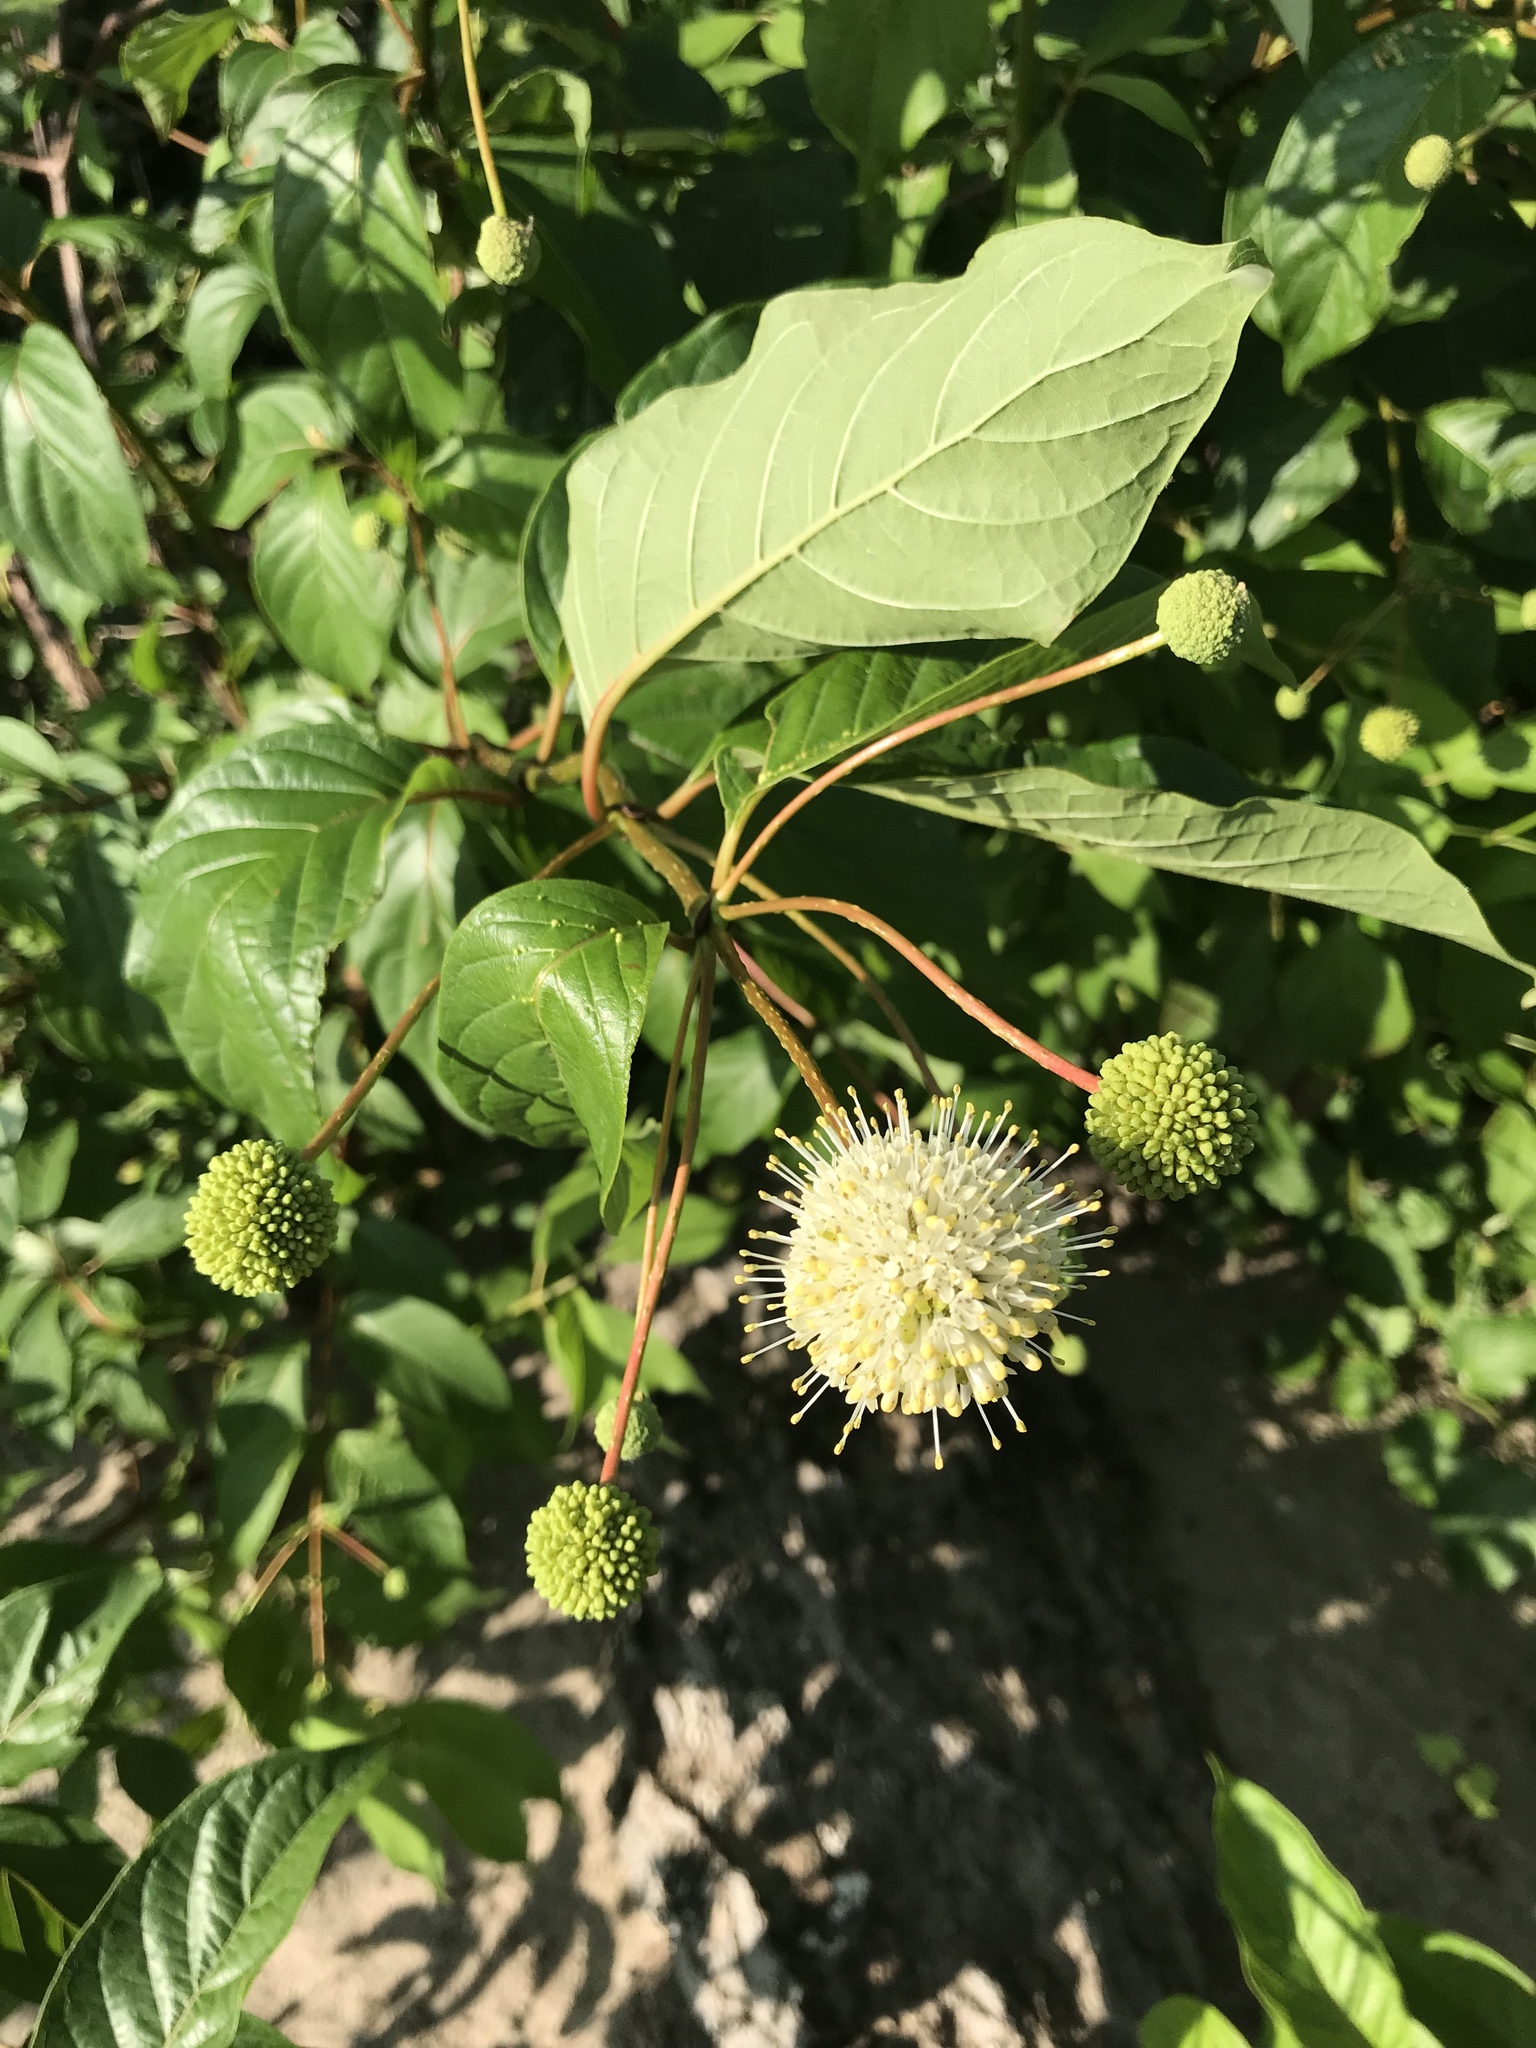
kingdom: Plantae
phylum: Tracheophyta
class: Magnoliopsida
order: Gentianales
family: Rubiaceae
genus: Cephalanthus
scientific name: Cephalanthus occidentalis
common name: Button-willow
